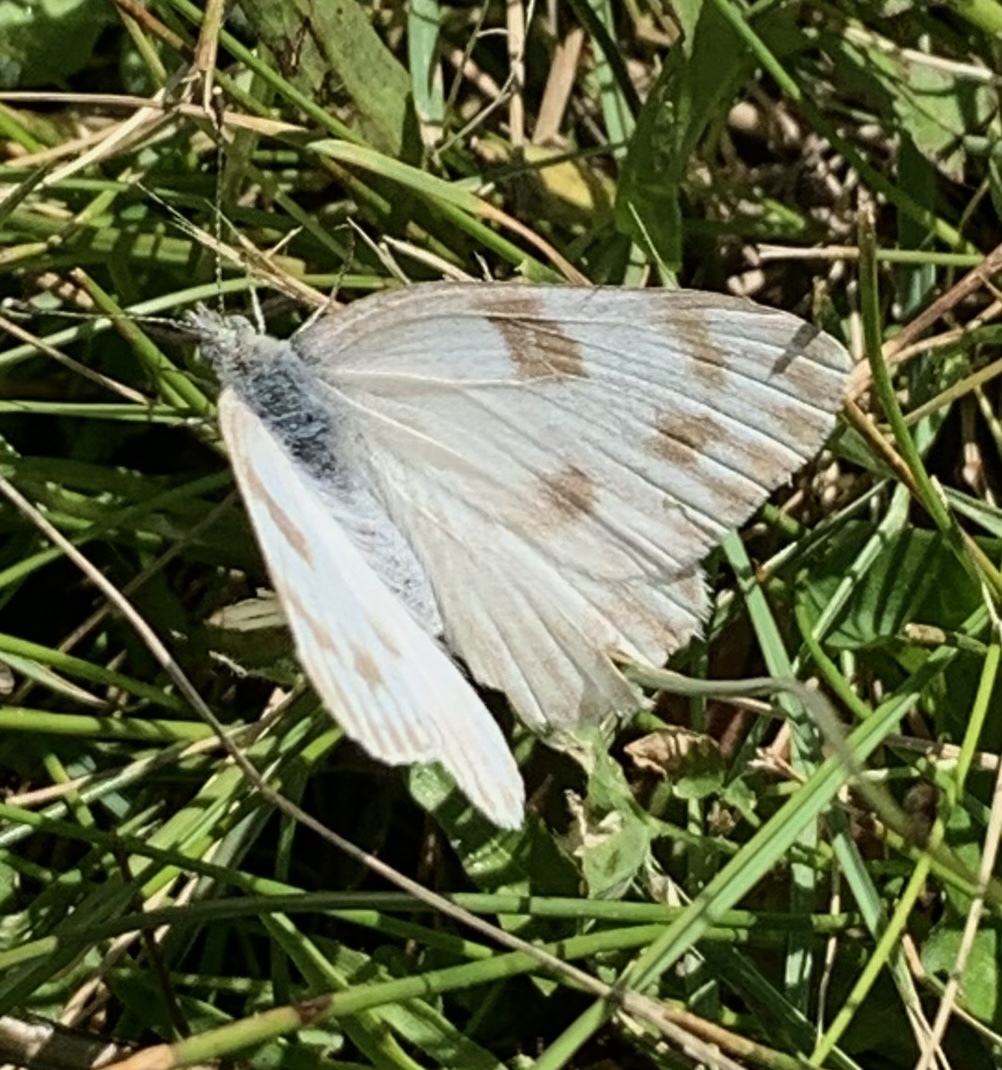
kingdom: Animalia
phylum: Arthropoda
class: Insecta
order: Lepidoptera
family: Pieridae
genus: Pontia
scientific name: Pontia protodice
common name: Checkered white
